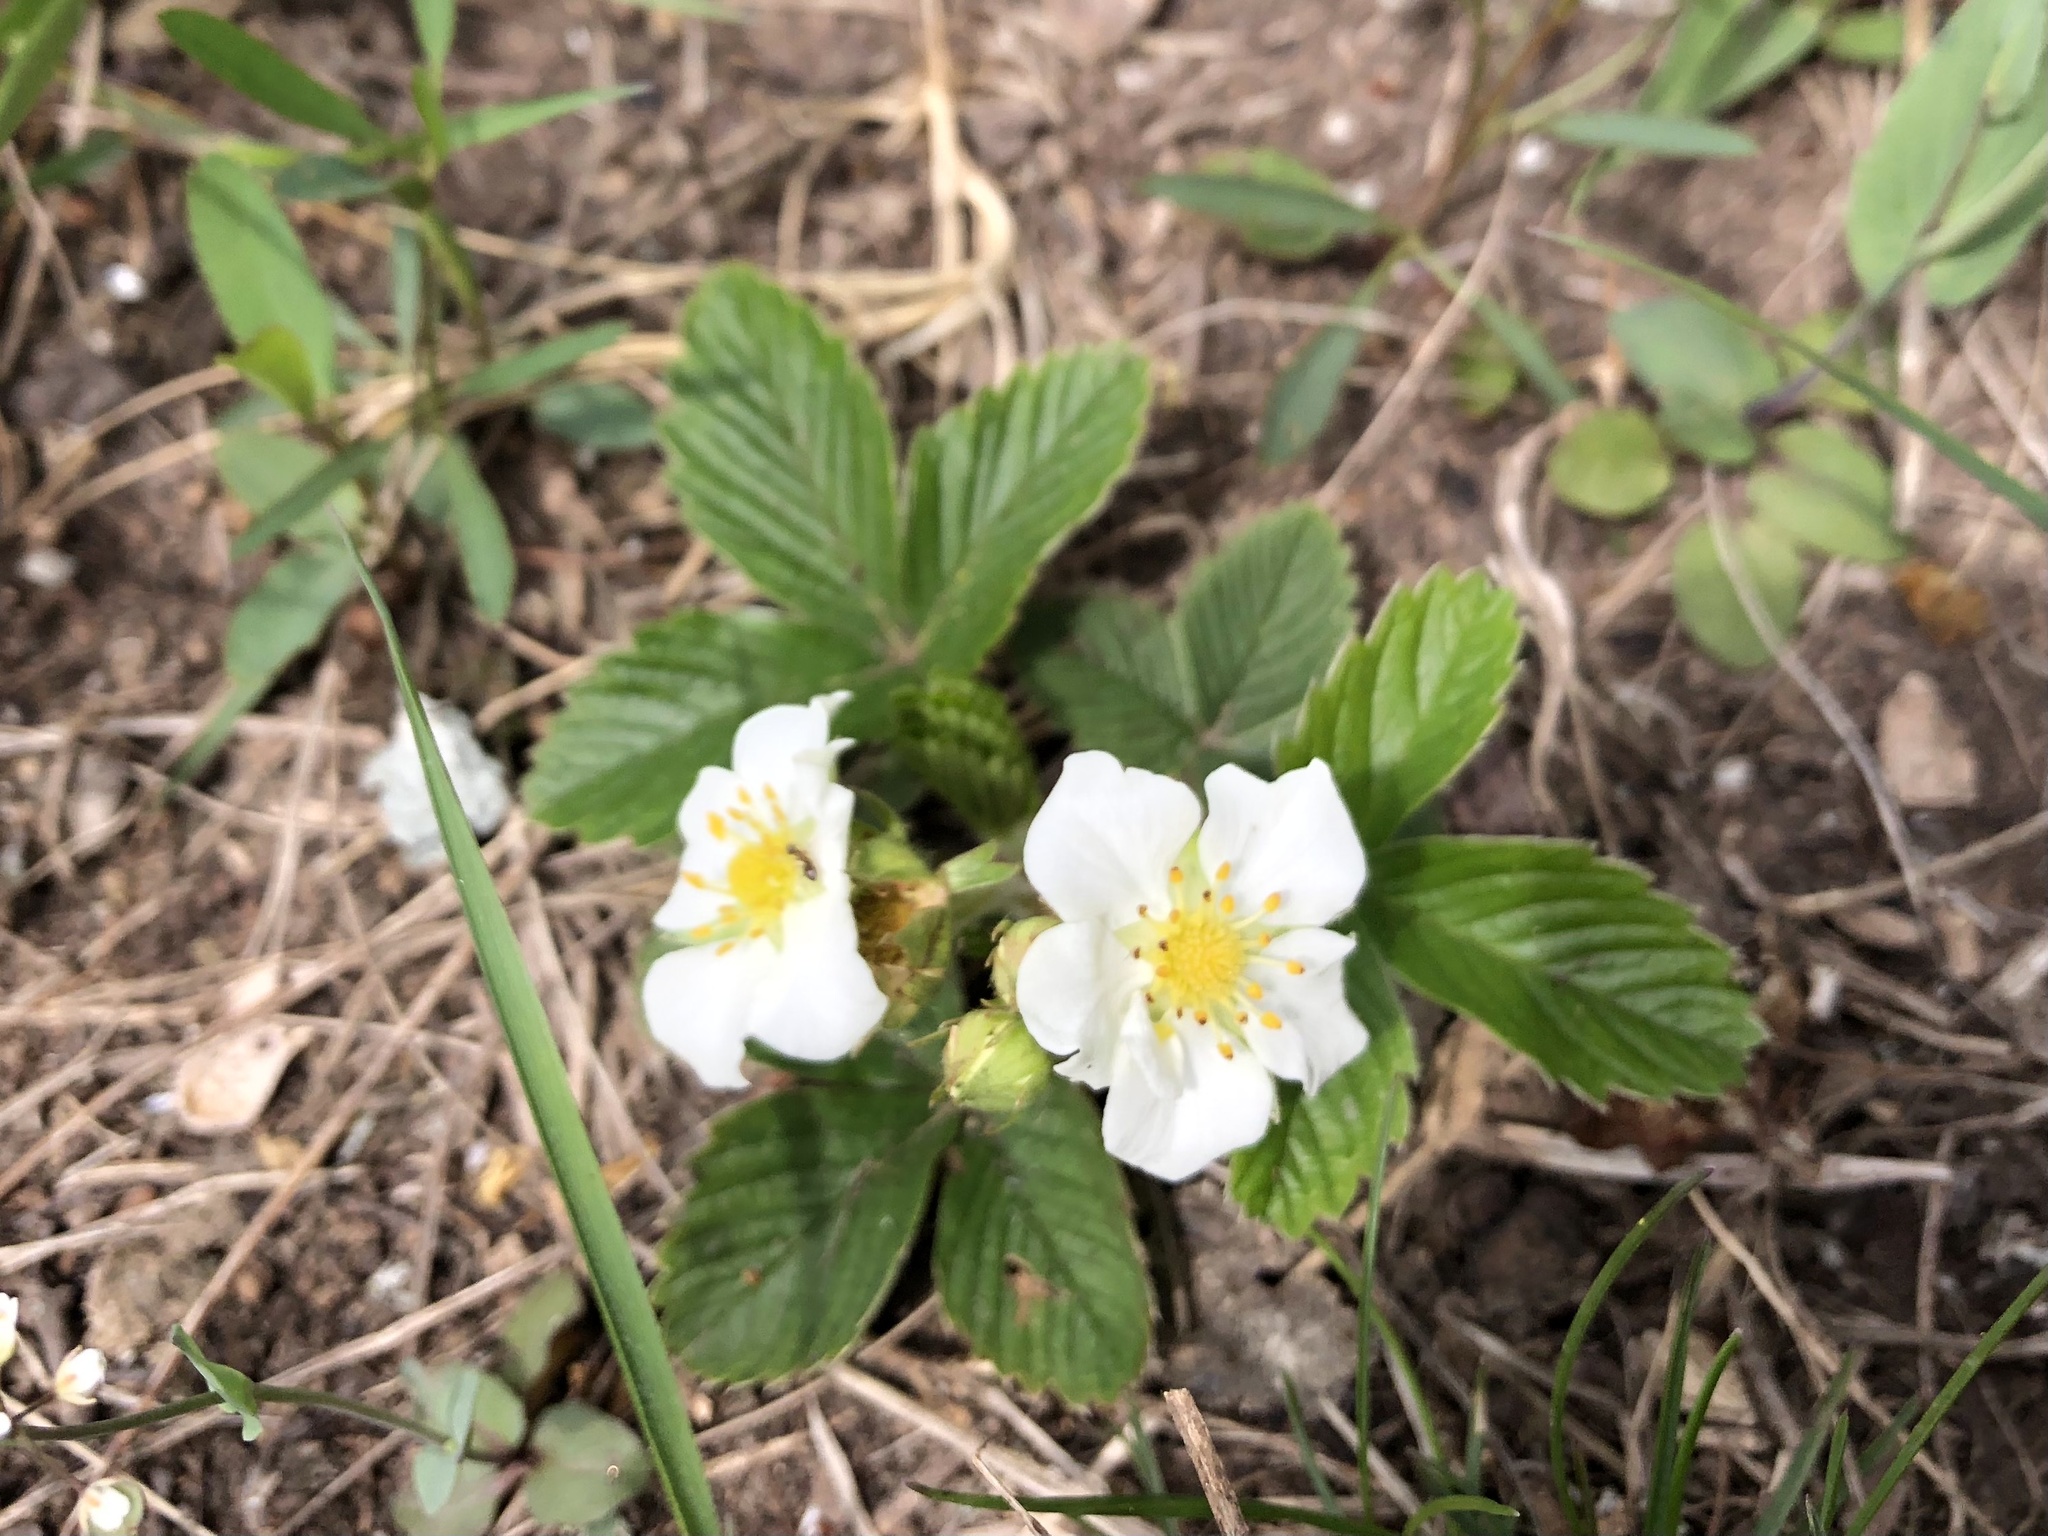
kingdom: Plantae
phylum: Tracheophyta
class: Magnoliopsida
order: Rosales
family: Rosaceae
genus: Fragaria
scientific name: Fragaria viridis
